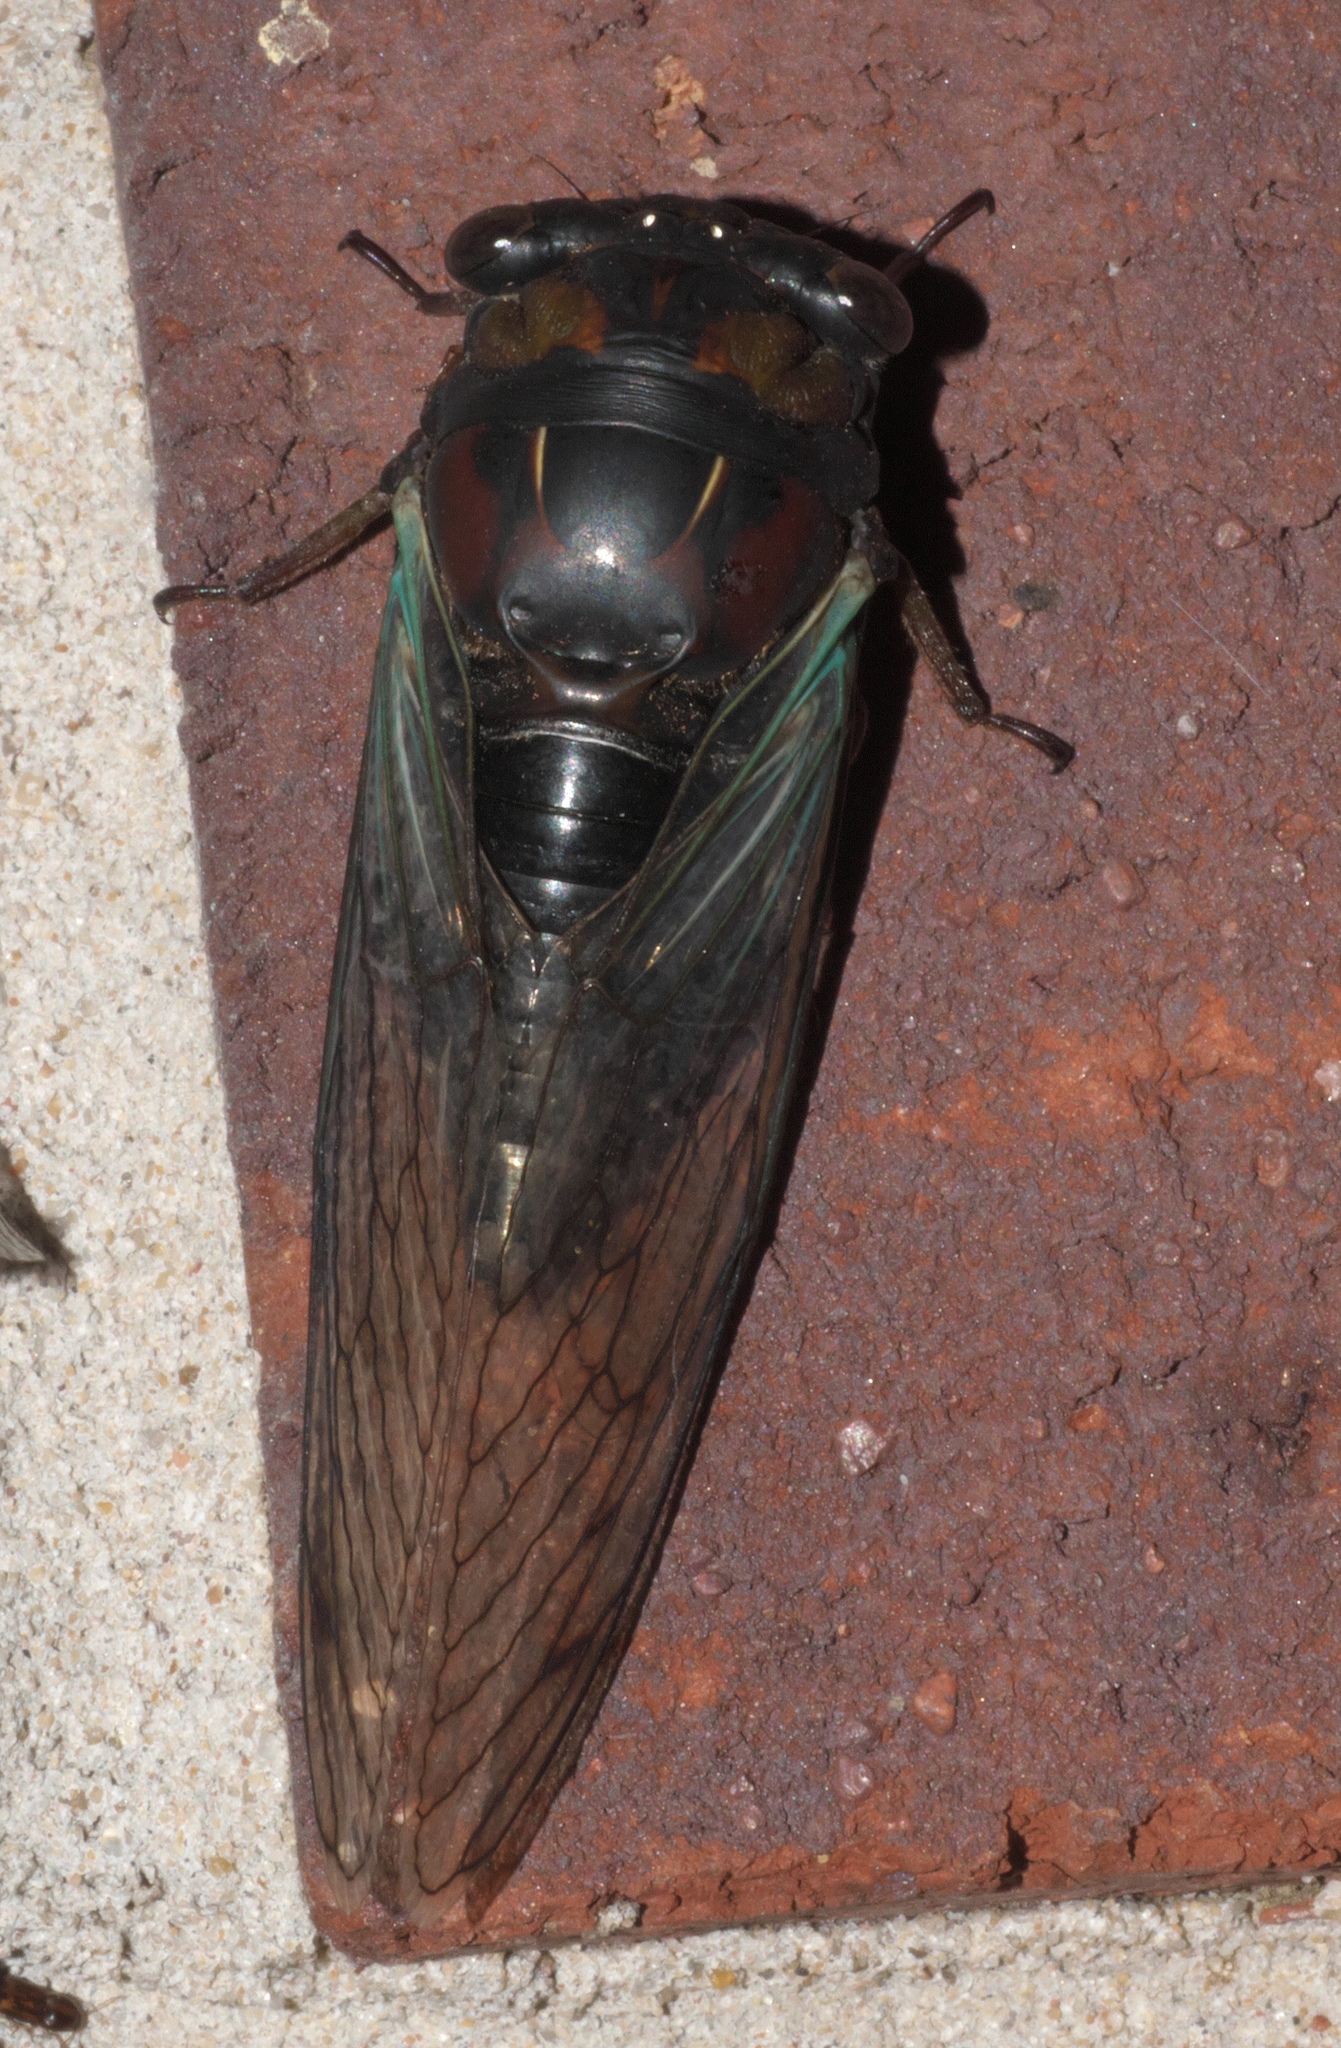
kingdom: Animalia
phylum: Arthropoda
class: Insecta
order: Hemiptera
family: Cicadidae
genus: Neotibicen
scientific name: Neotibicen lyricen
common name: Lyric cicada
